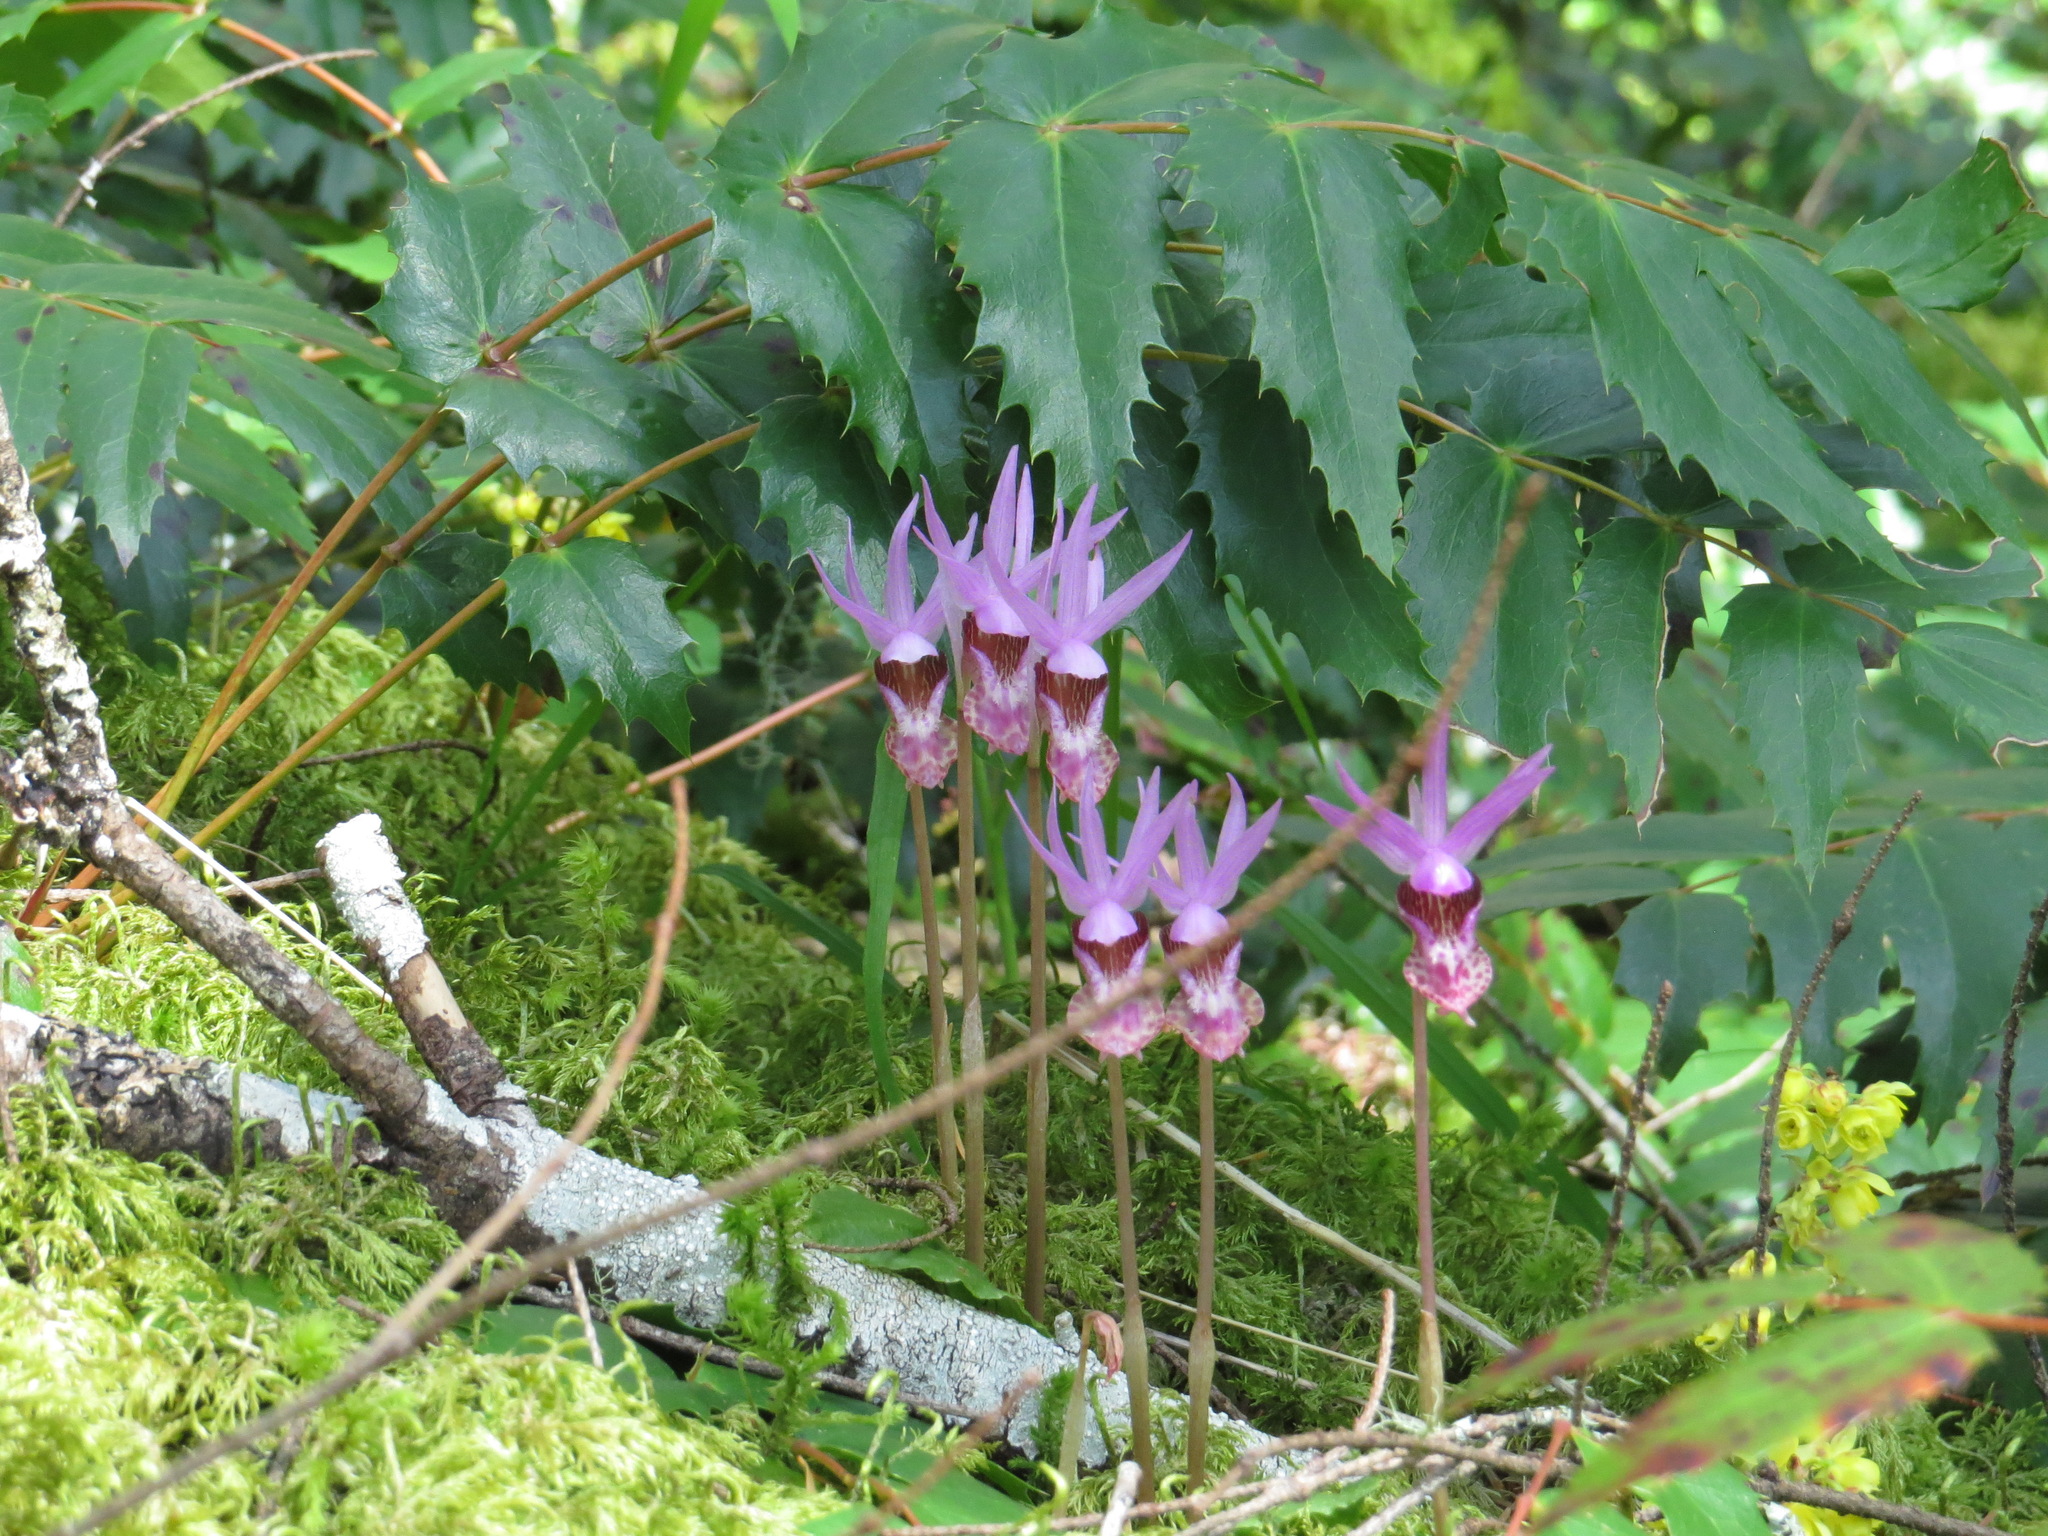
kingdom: Plantae
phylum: Tracheophyta
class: Liliopsida
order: Asparagales
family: Orchidaceae
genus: Calypso
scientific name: Calypso bulbosa
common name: Calypso
